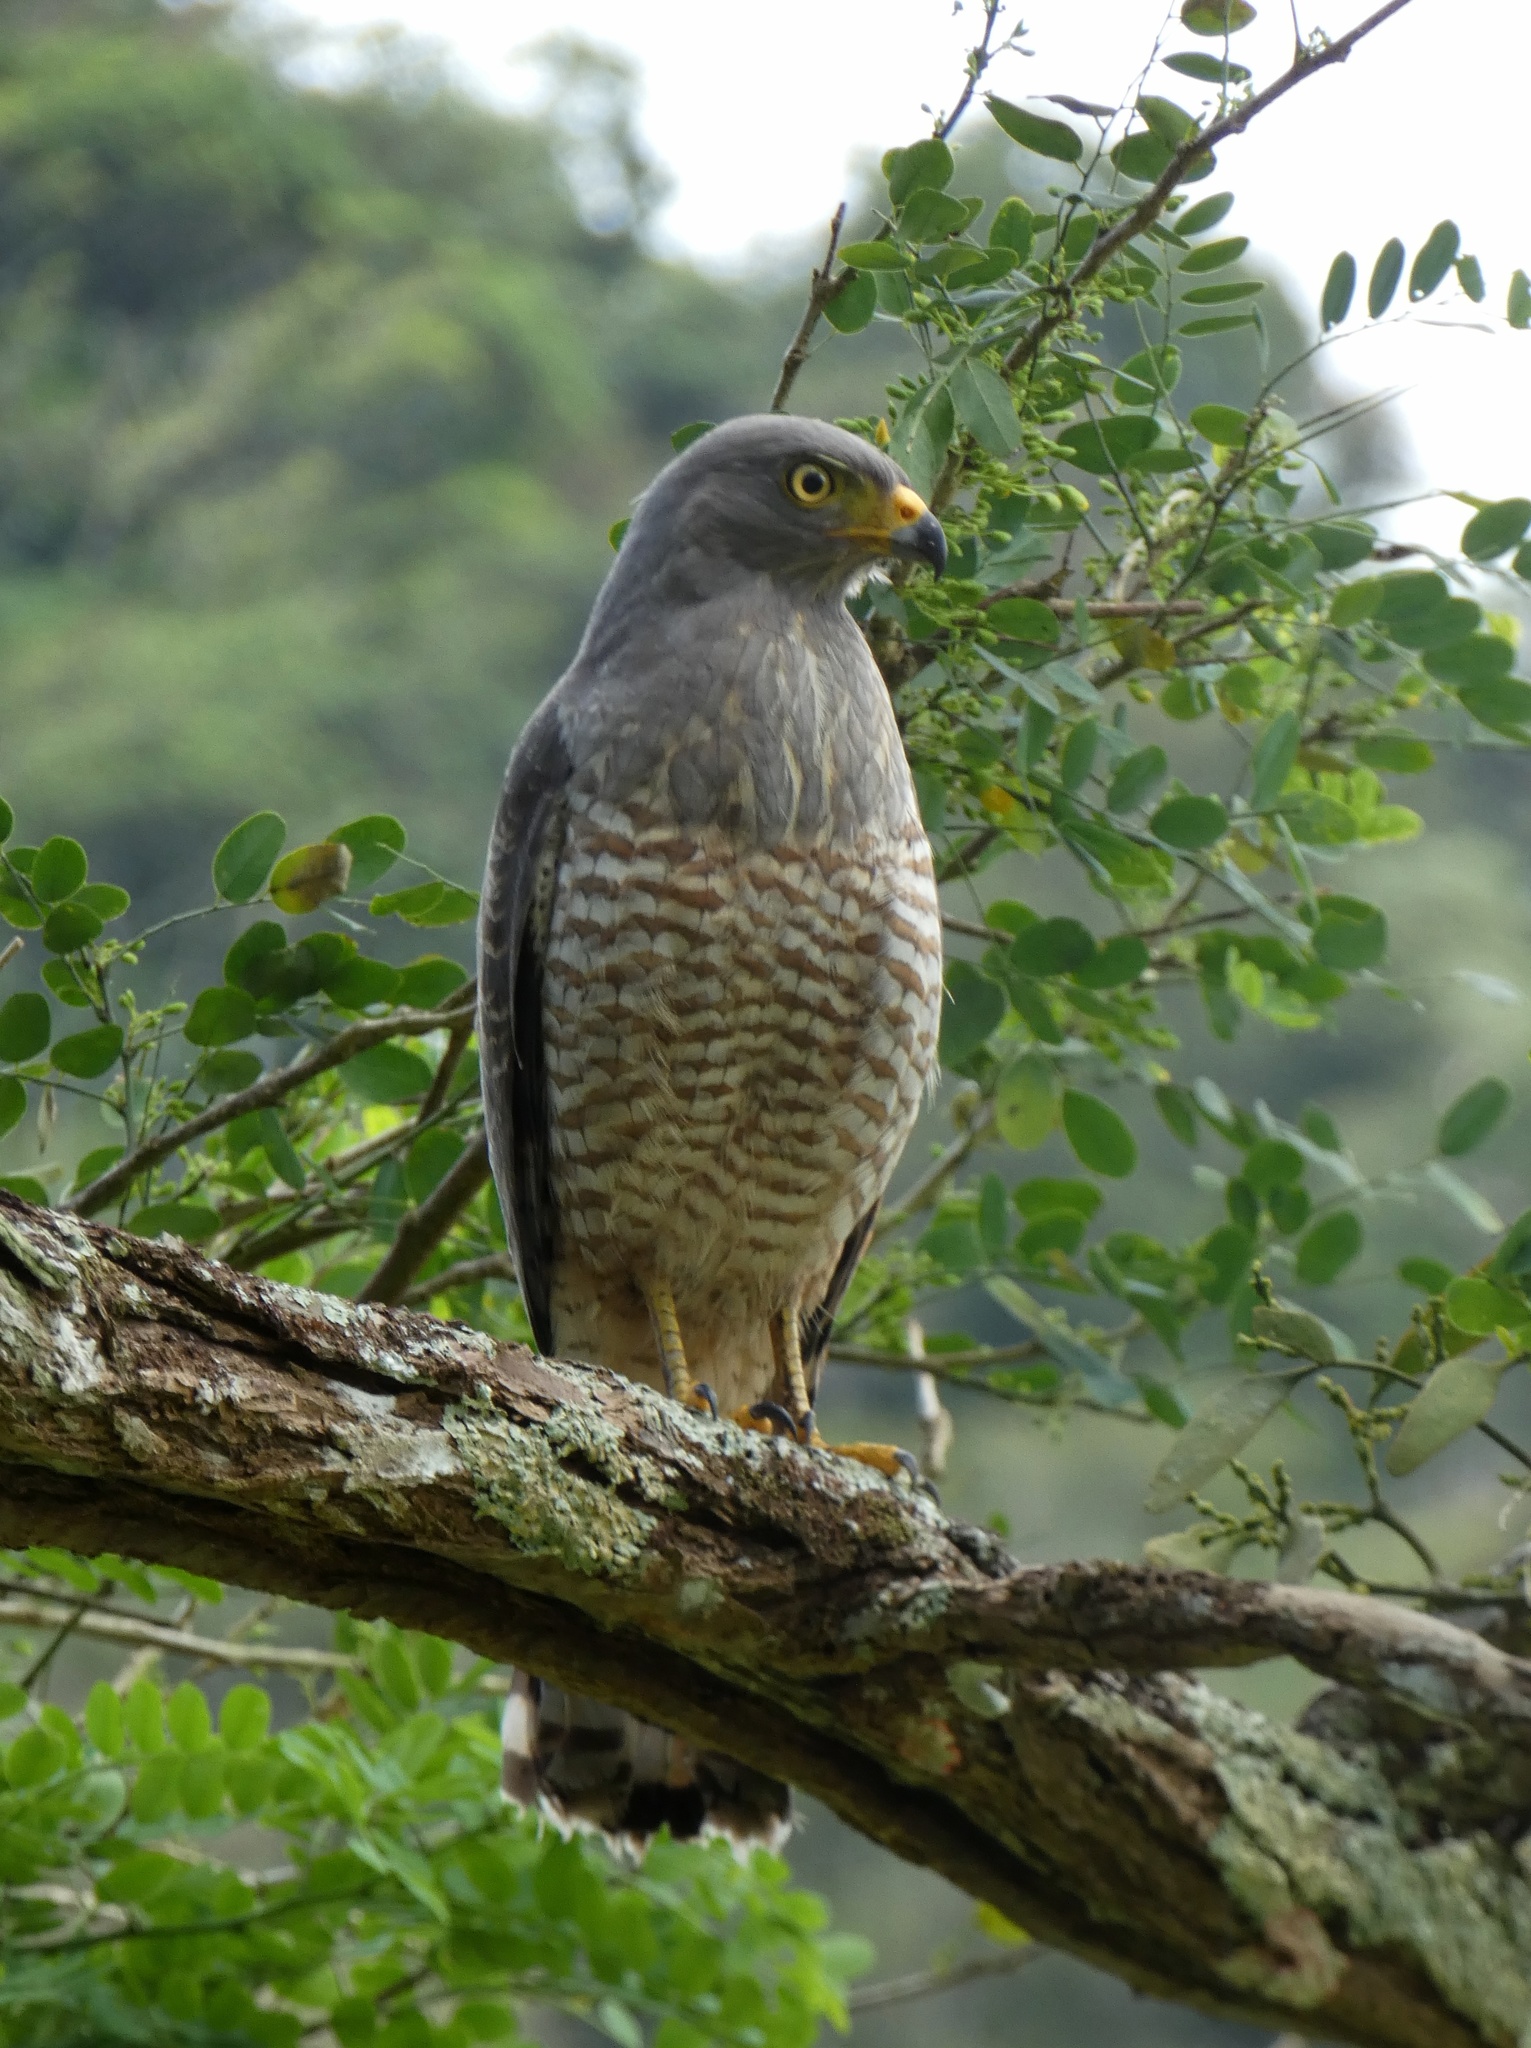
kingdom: Animalia
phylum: Chordata
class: Aves
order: Accipitriformes
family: Accipitridae
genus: Rupornis
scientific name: Rupornis magnirostris
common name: Roadside hawk
